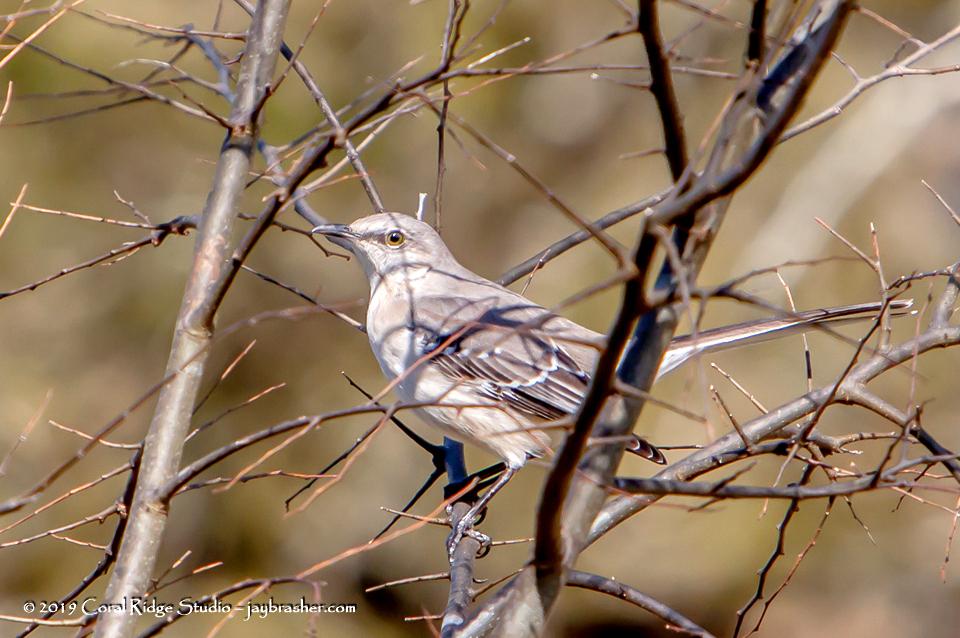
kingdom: Animalia
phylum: Chordata
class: Aves
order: Passeriformes
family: Mimidae
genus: Mimus
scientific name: Mimus polyglottos
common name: Northern mockingbird
